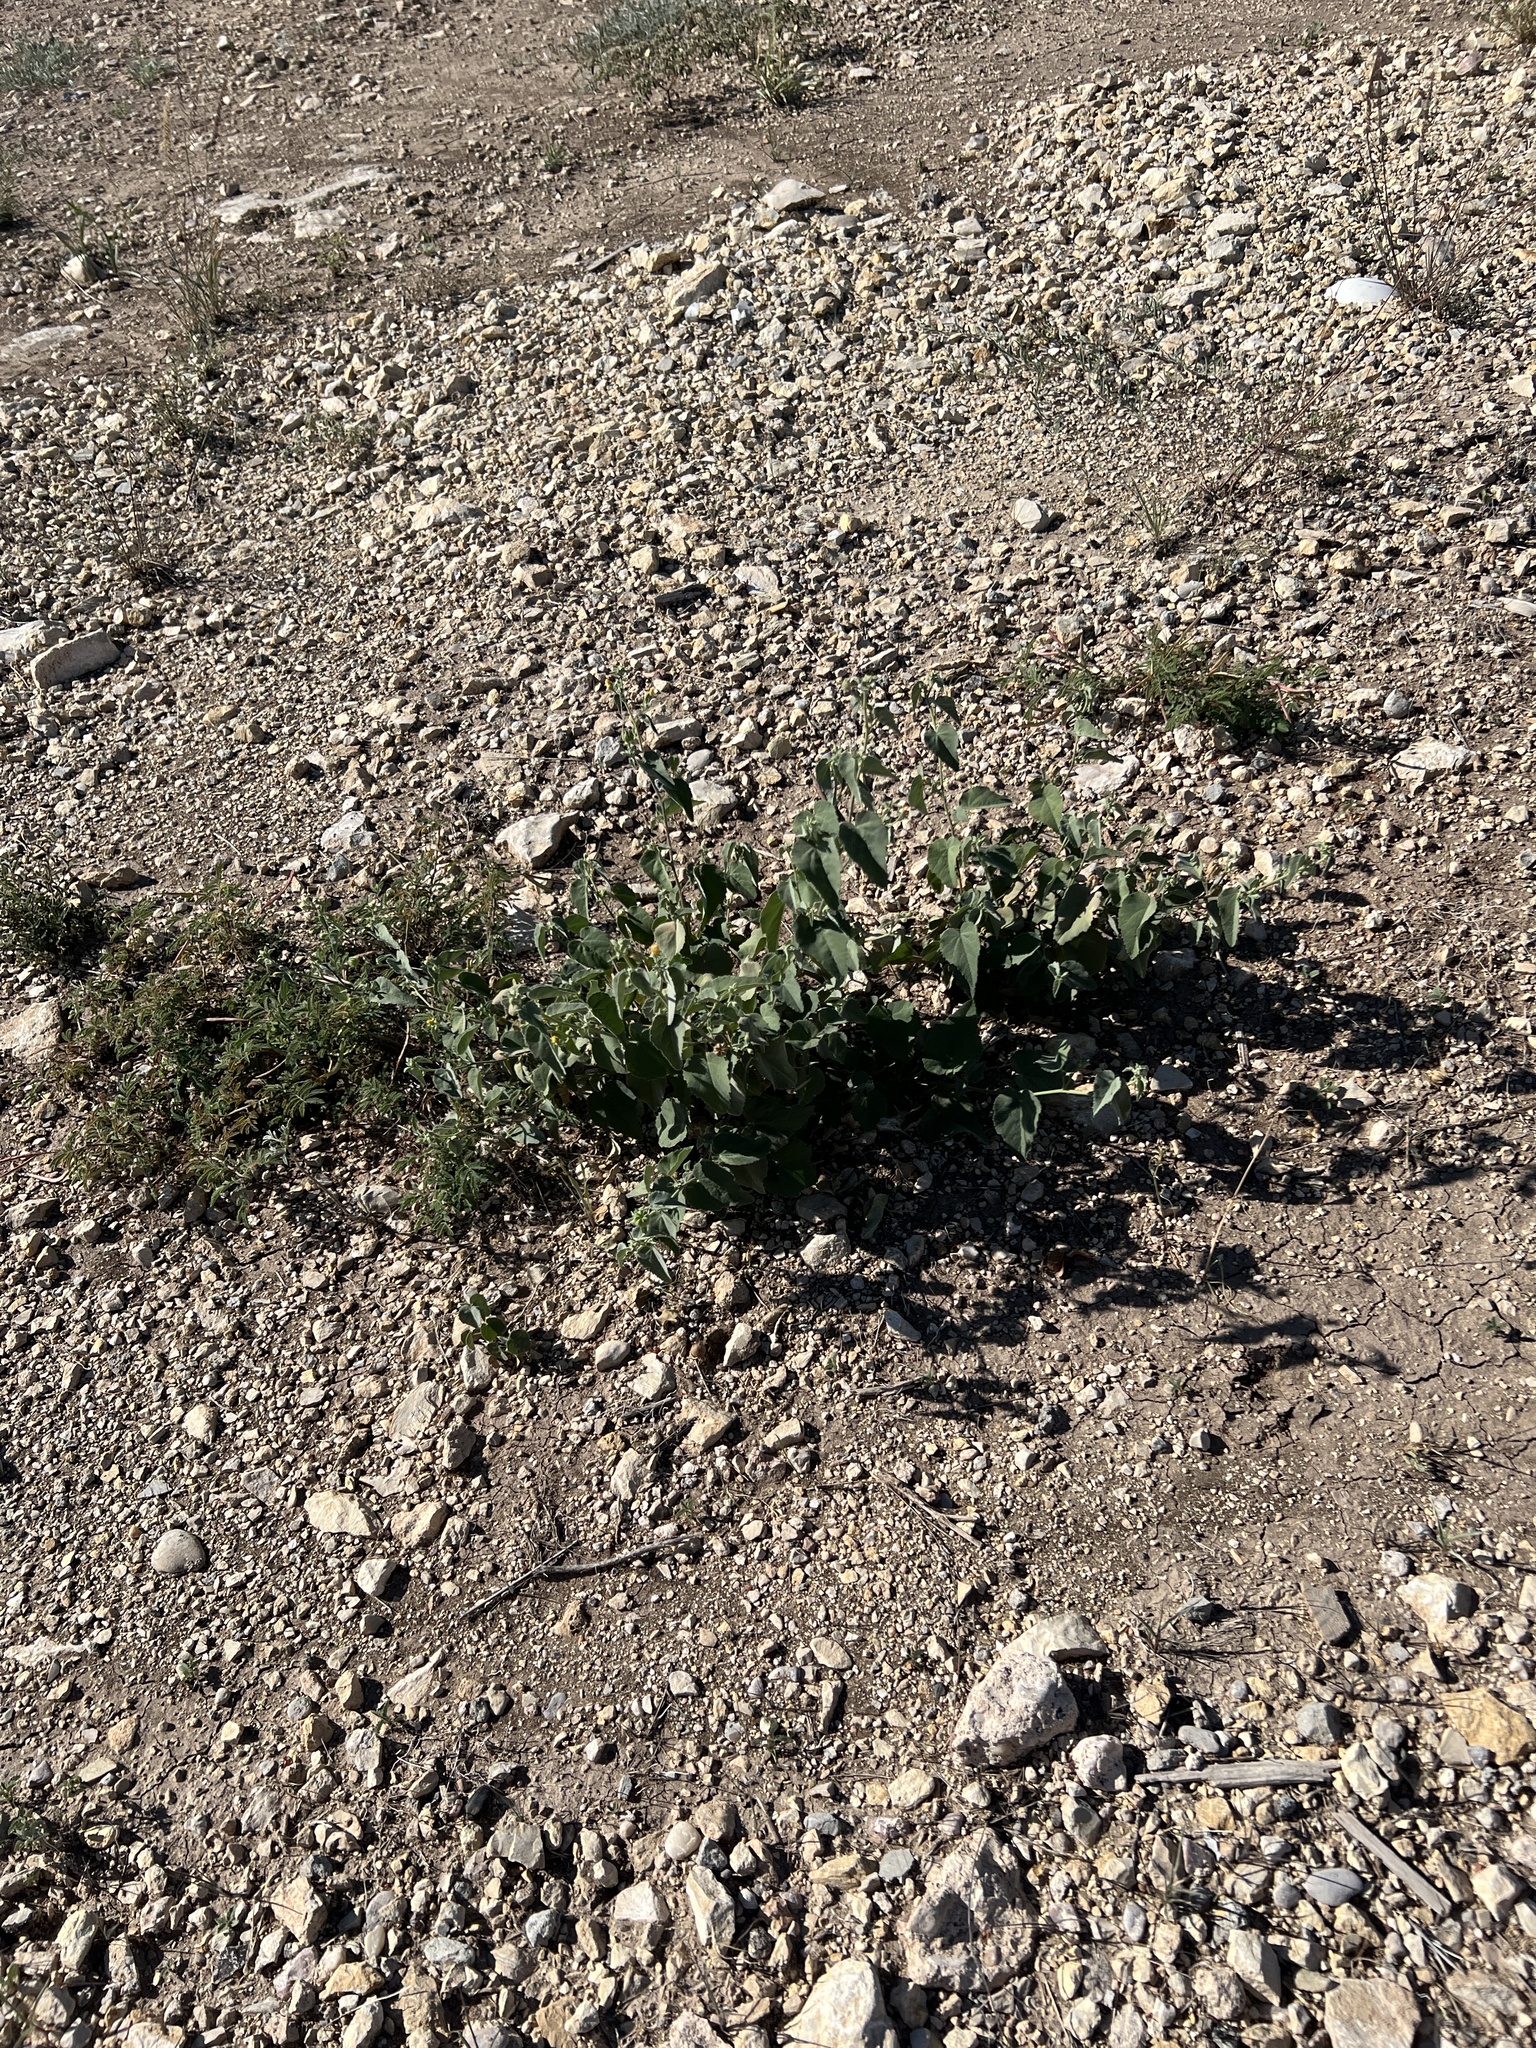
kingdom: Plantae
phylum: Tracheophyta
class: Magnoliopsida
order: Malvales
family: Malvaceae
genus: Abutilon
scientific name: Abutilon fruticosum
